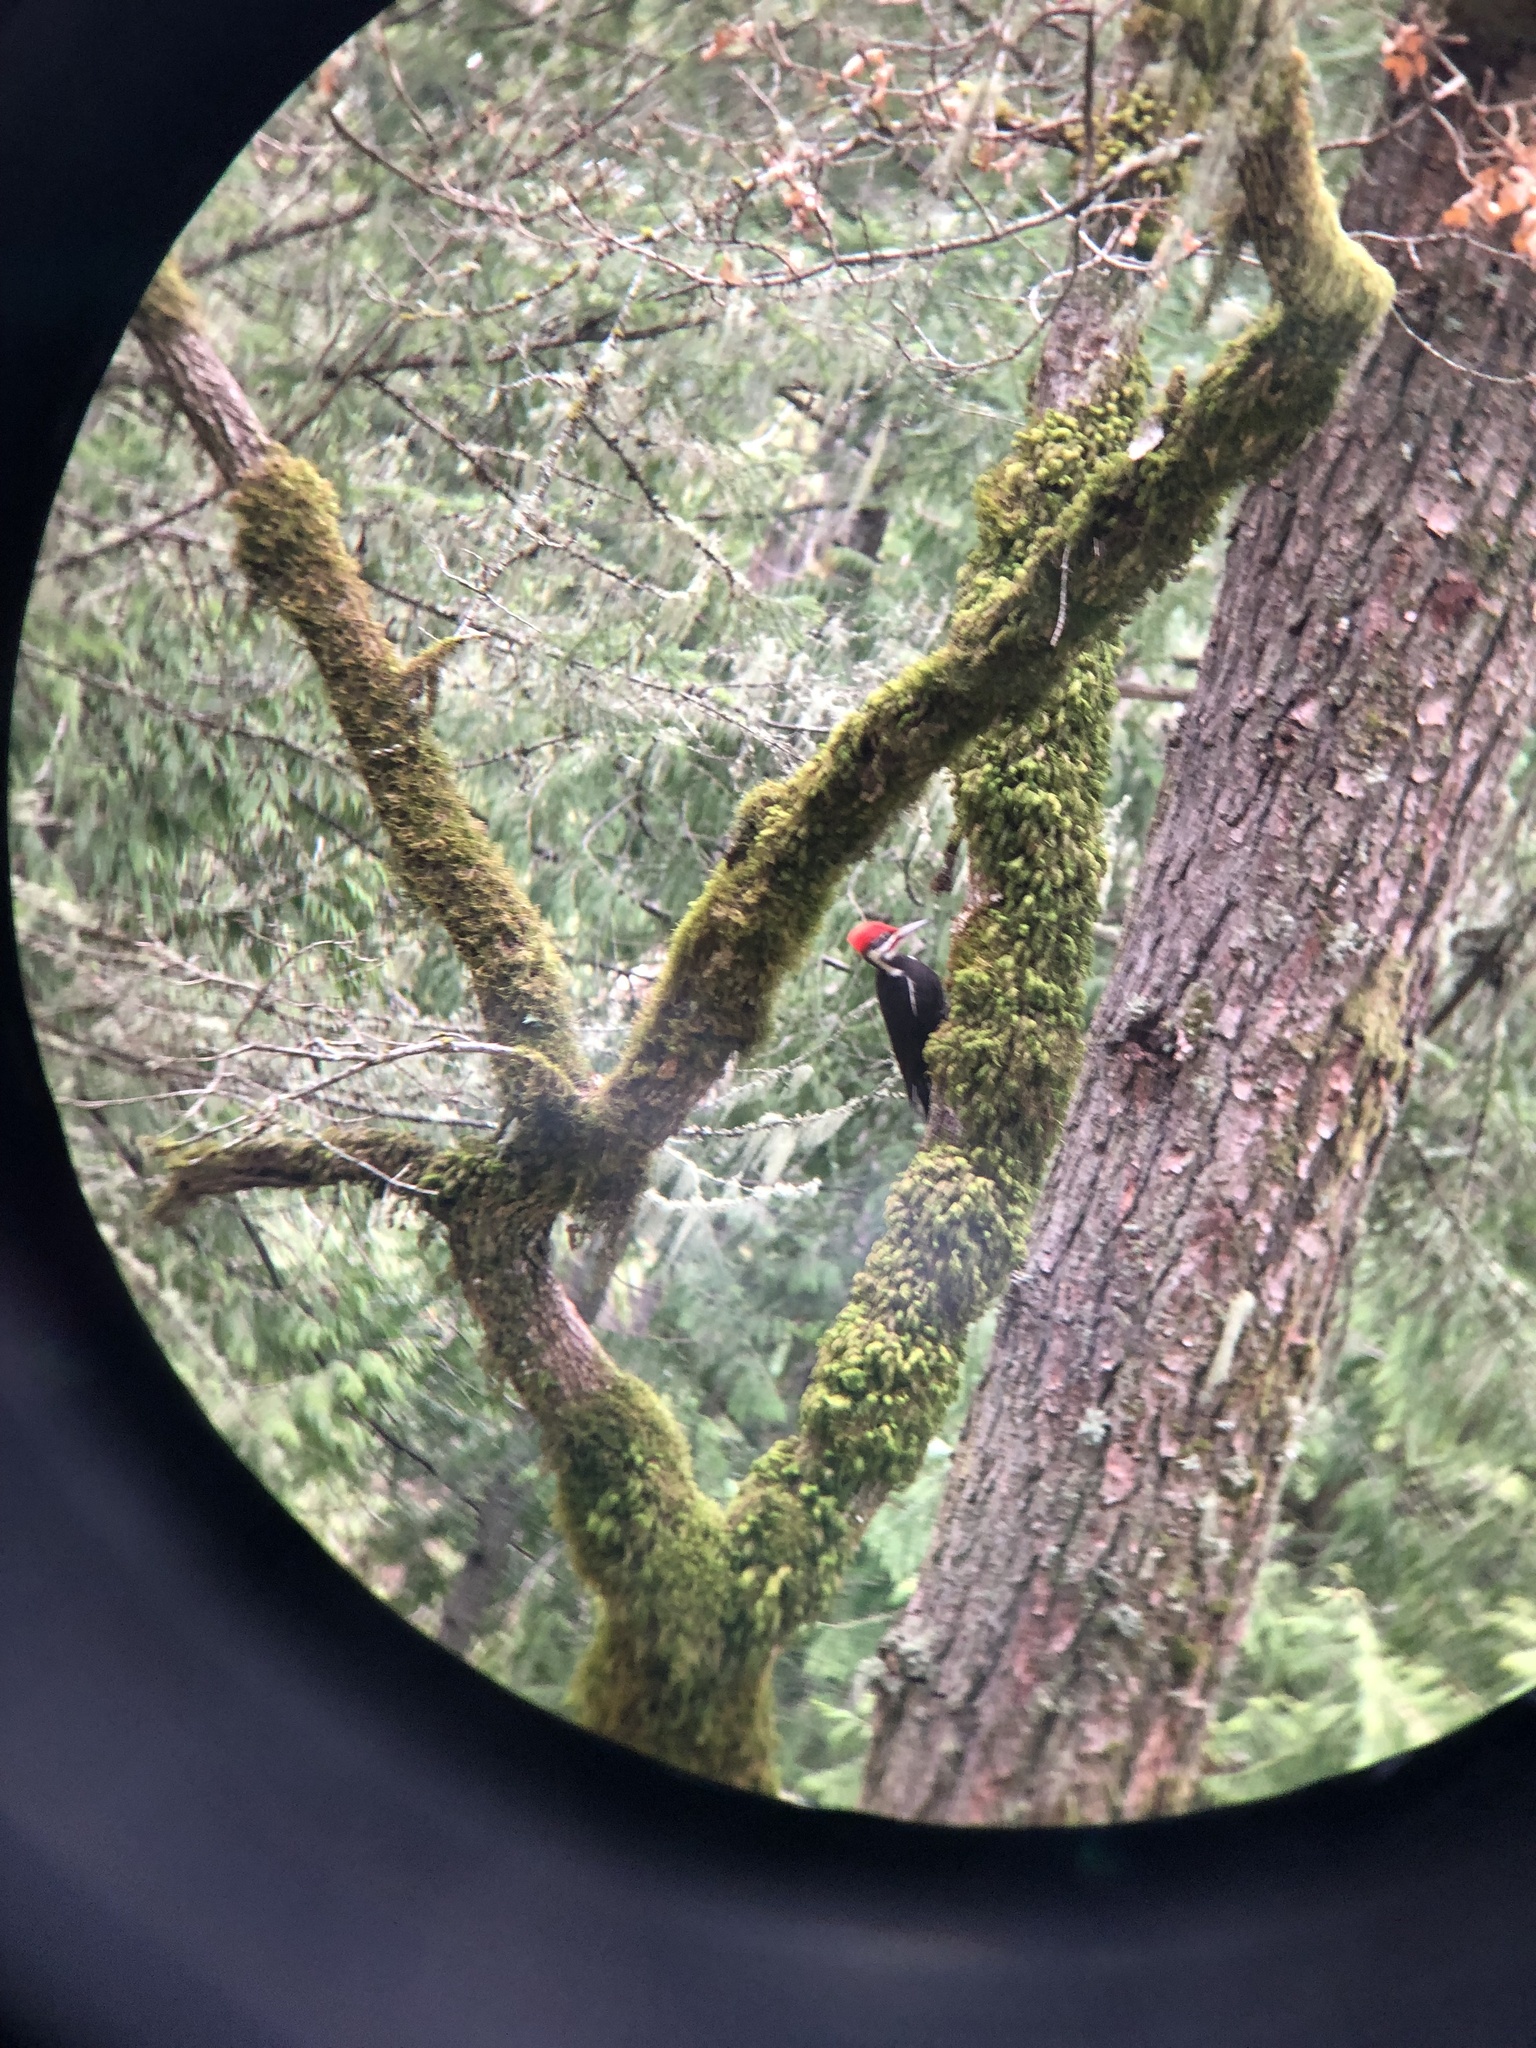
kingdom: Animalia
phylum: Chordata
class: Aves
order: Piciformes
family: Picidae
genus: Dryocopus
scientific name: Dryocopus pileatus
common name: Pileated woodpecker
